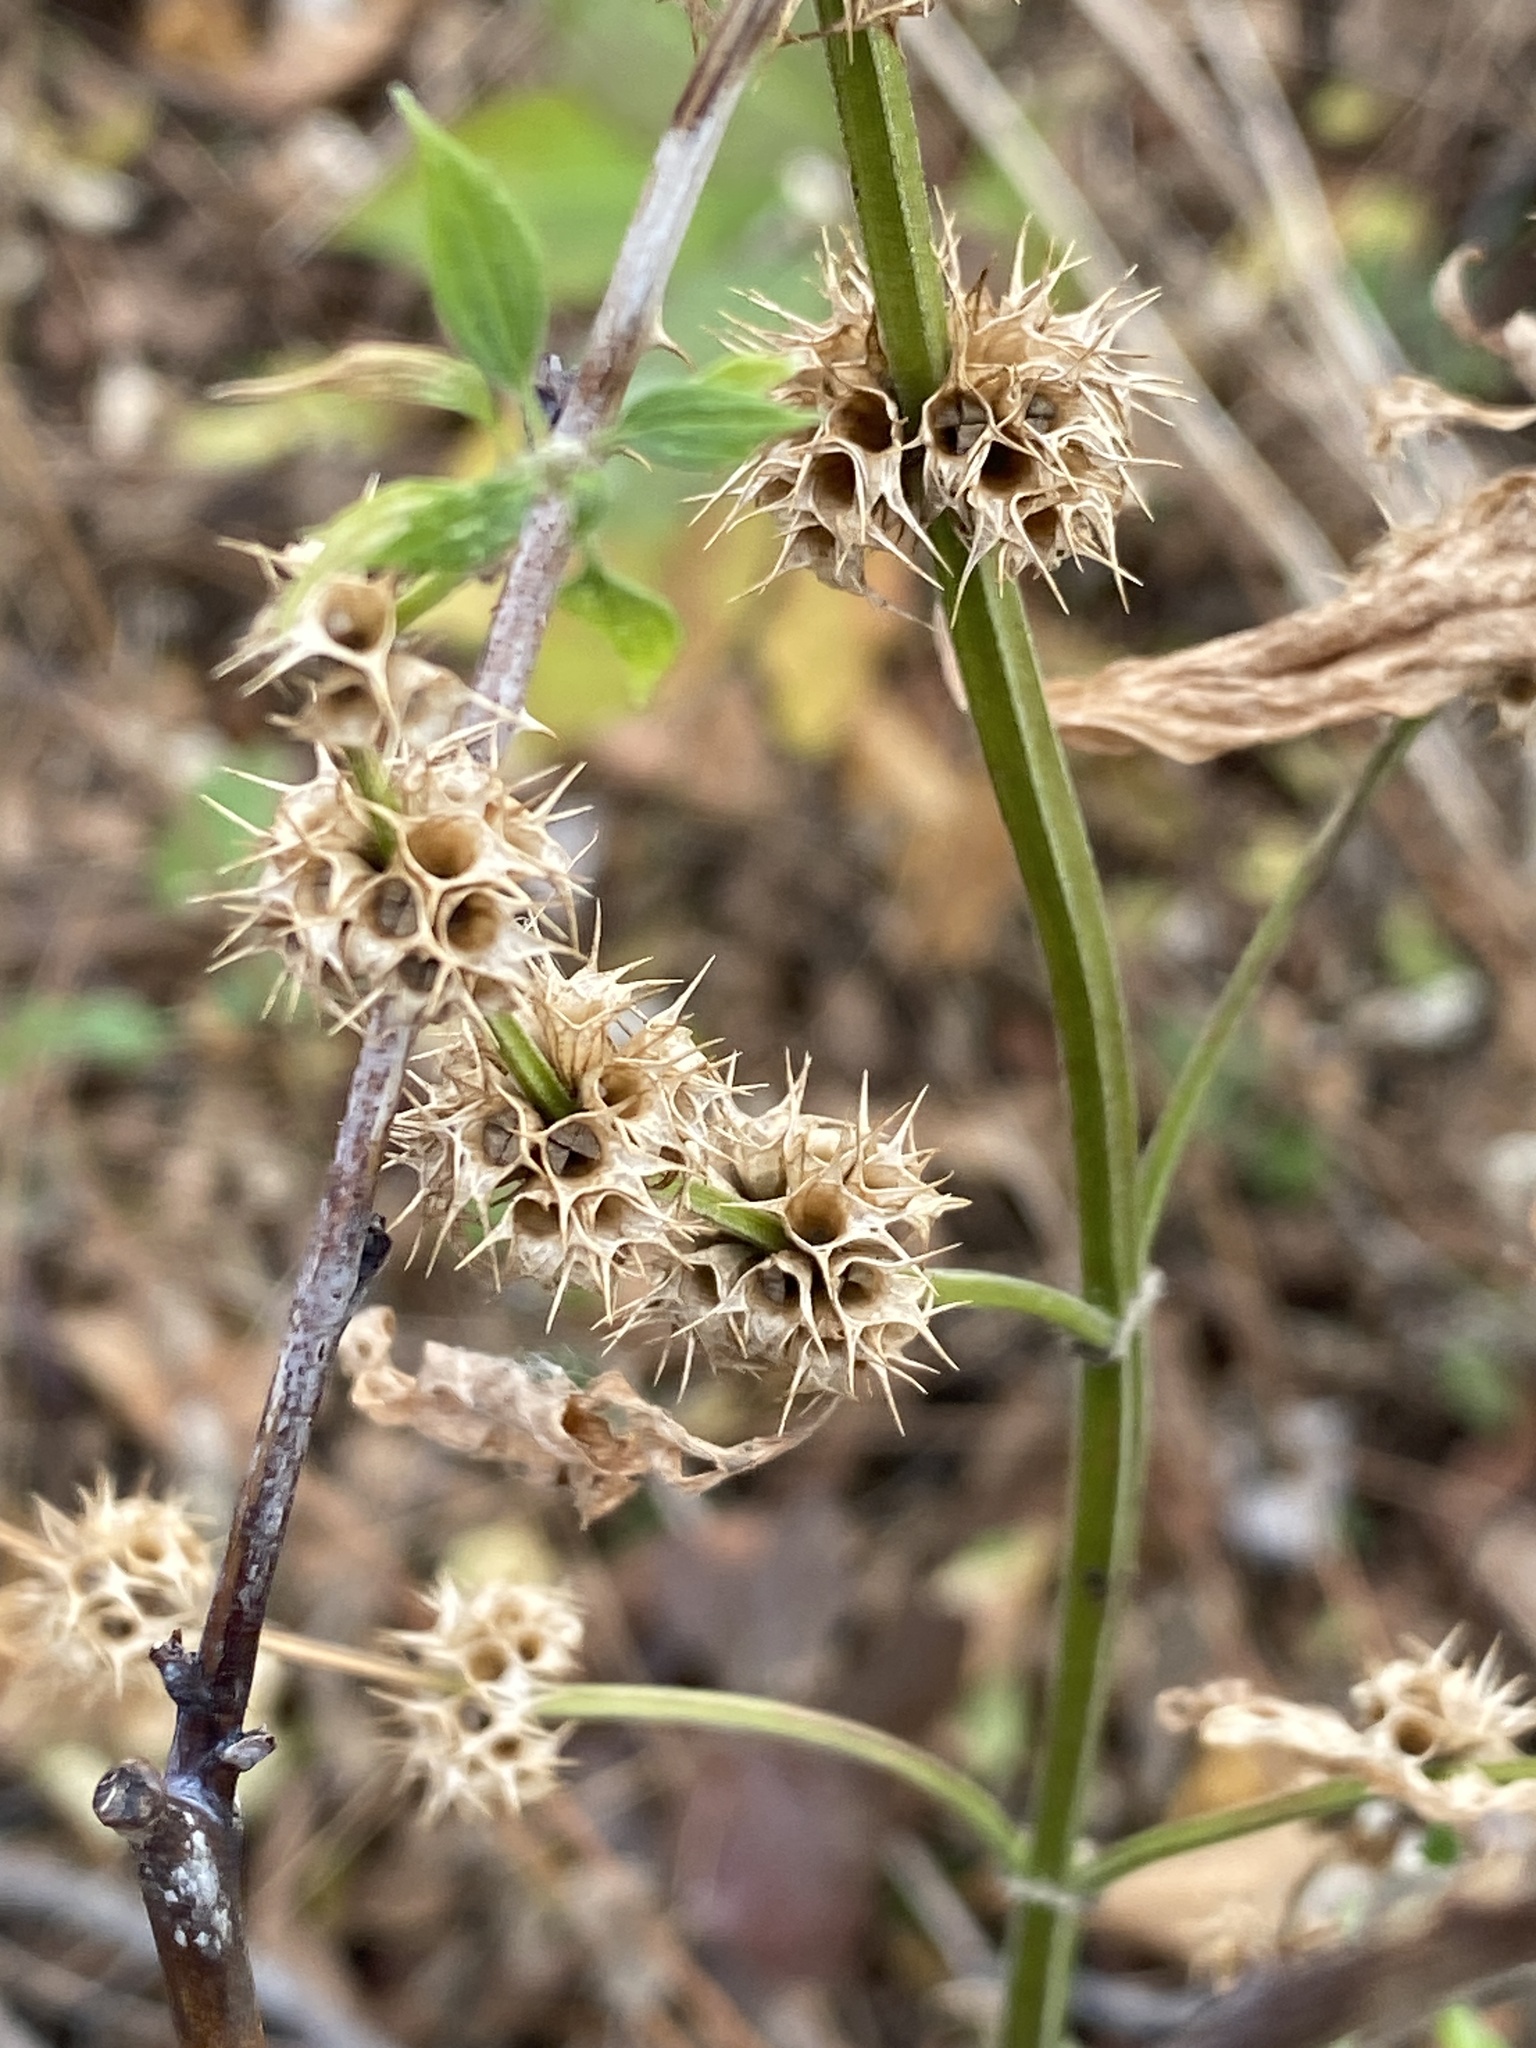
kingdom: Plantae
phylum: Tracheophyta
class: Magnoliopsida
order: Lamiales
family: Lamiaceae
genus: Leonurus
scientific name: Leonurus cardiaca
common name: Motherwort
